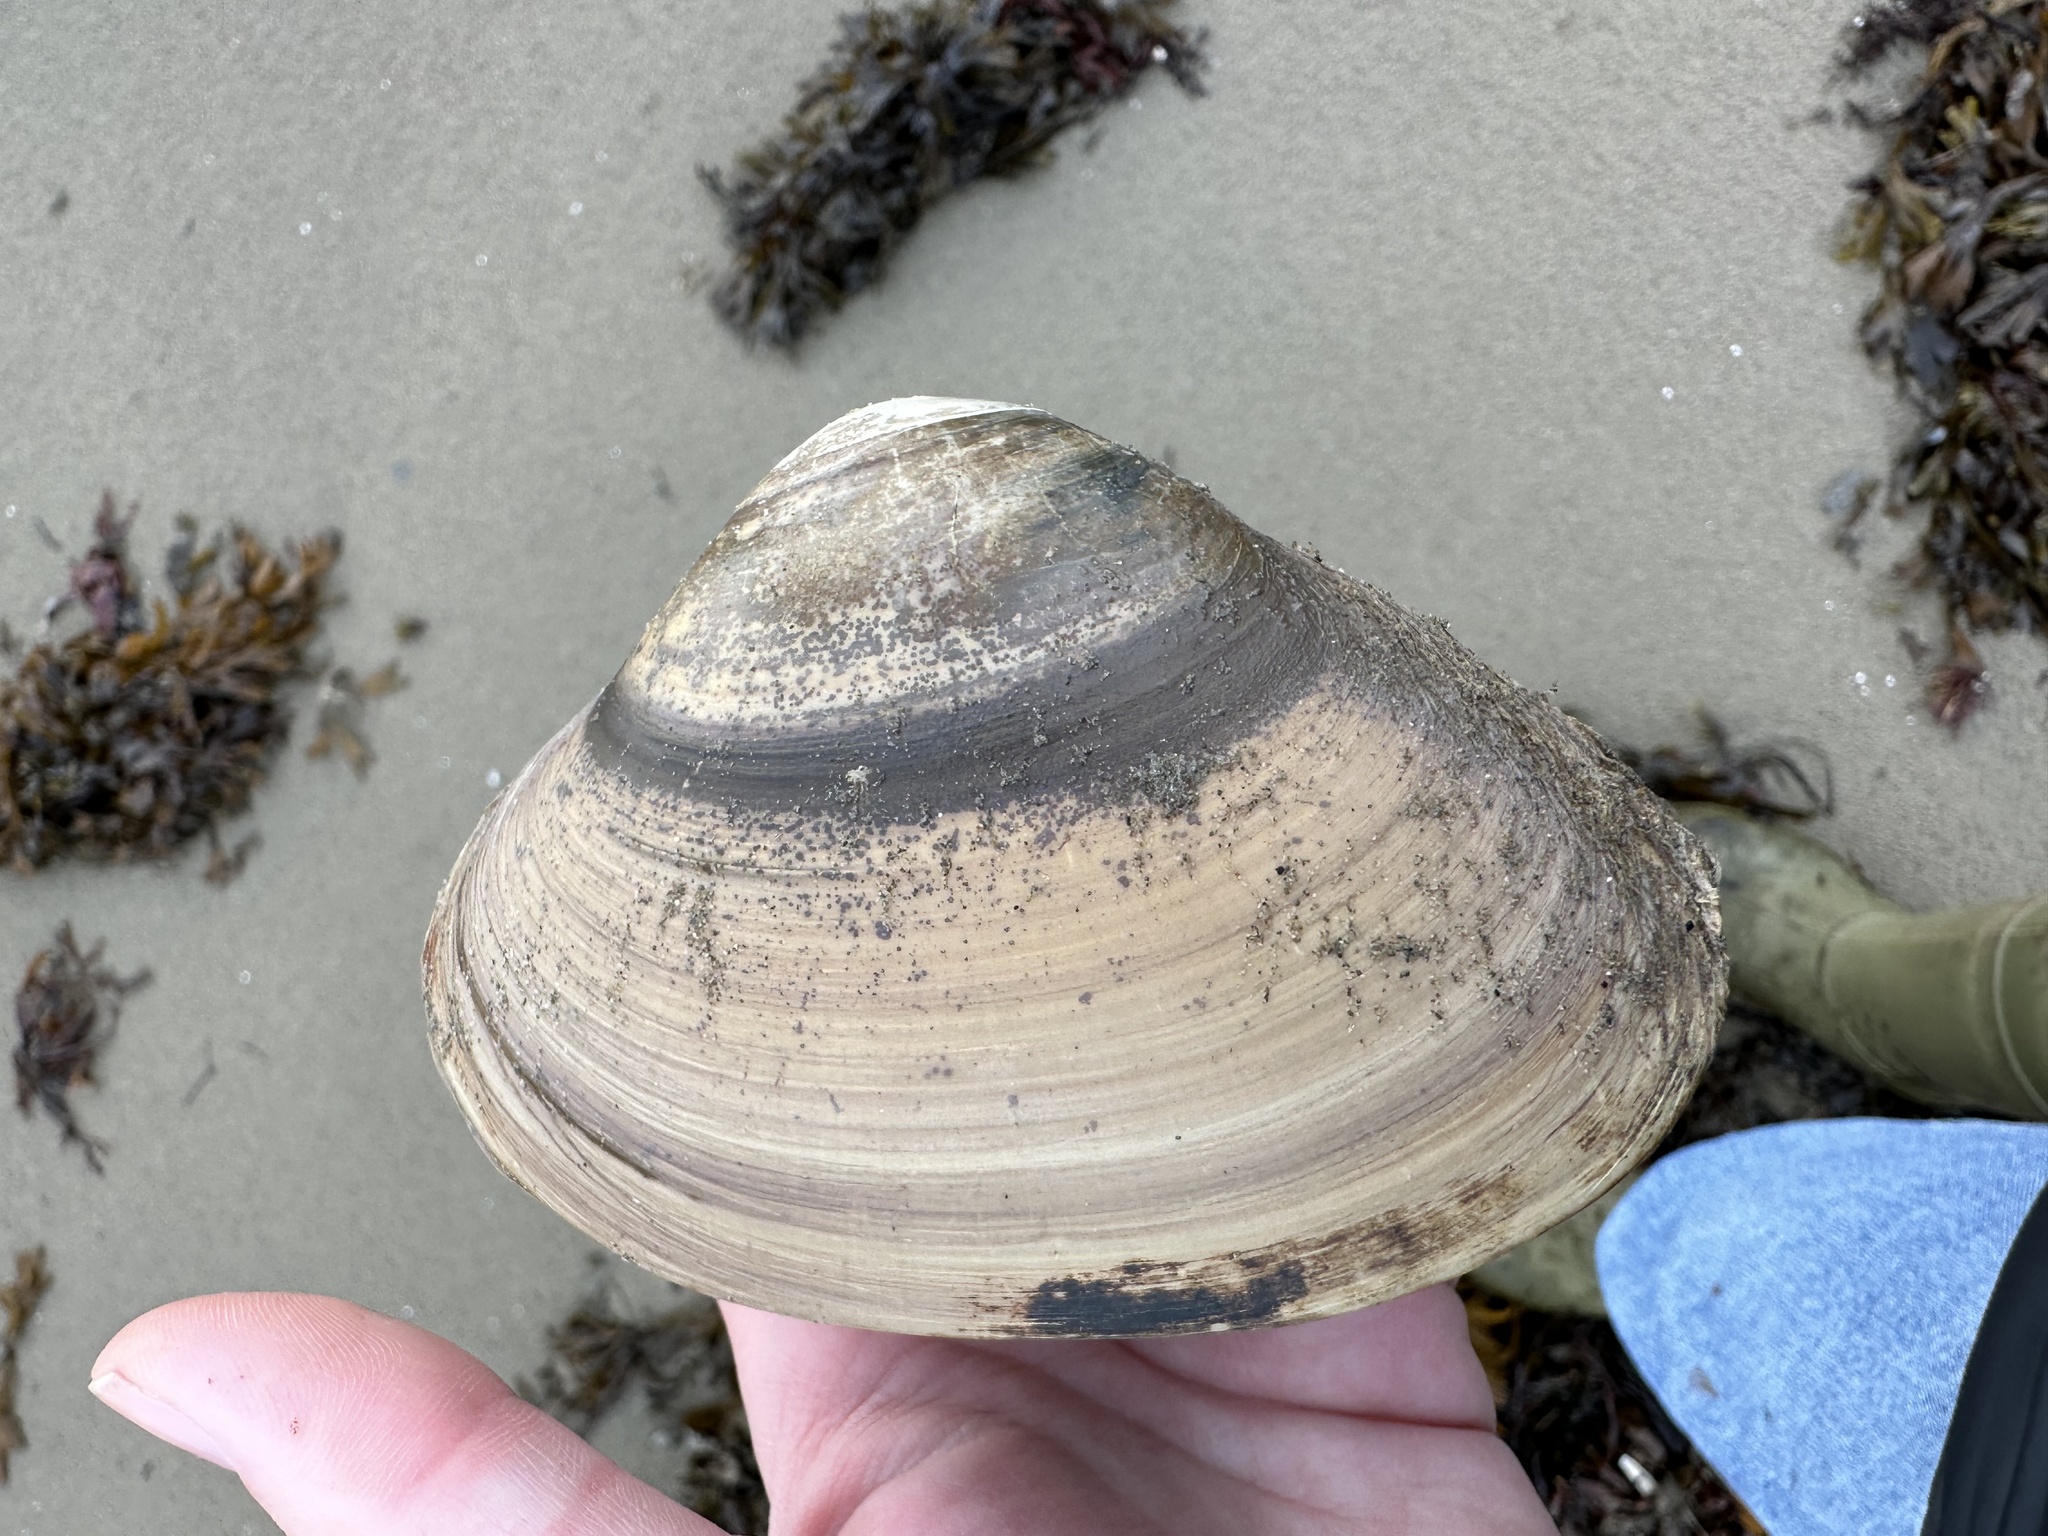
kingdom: Animalia
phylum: Mollusca
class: Bivalvia
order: Venerida
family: Mactridae
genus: Spisula
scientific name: Spisula solidissima
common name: Atlantic surf clam
